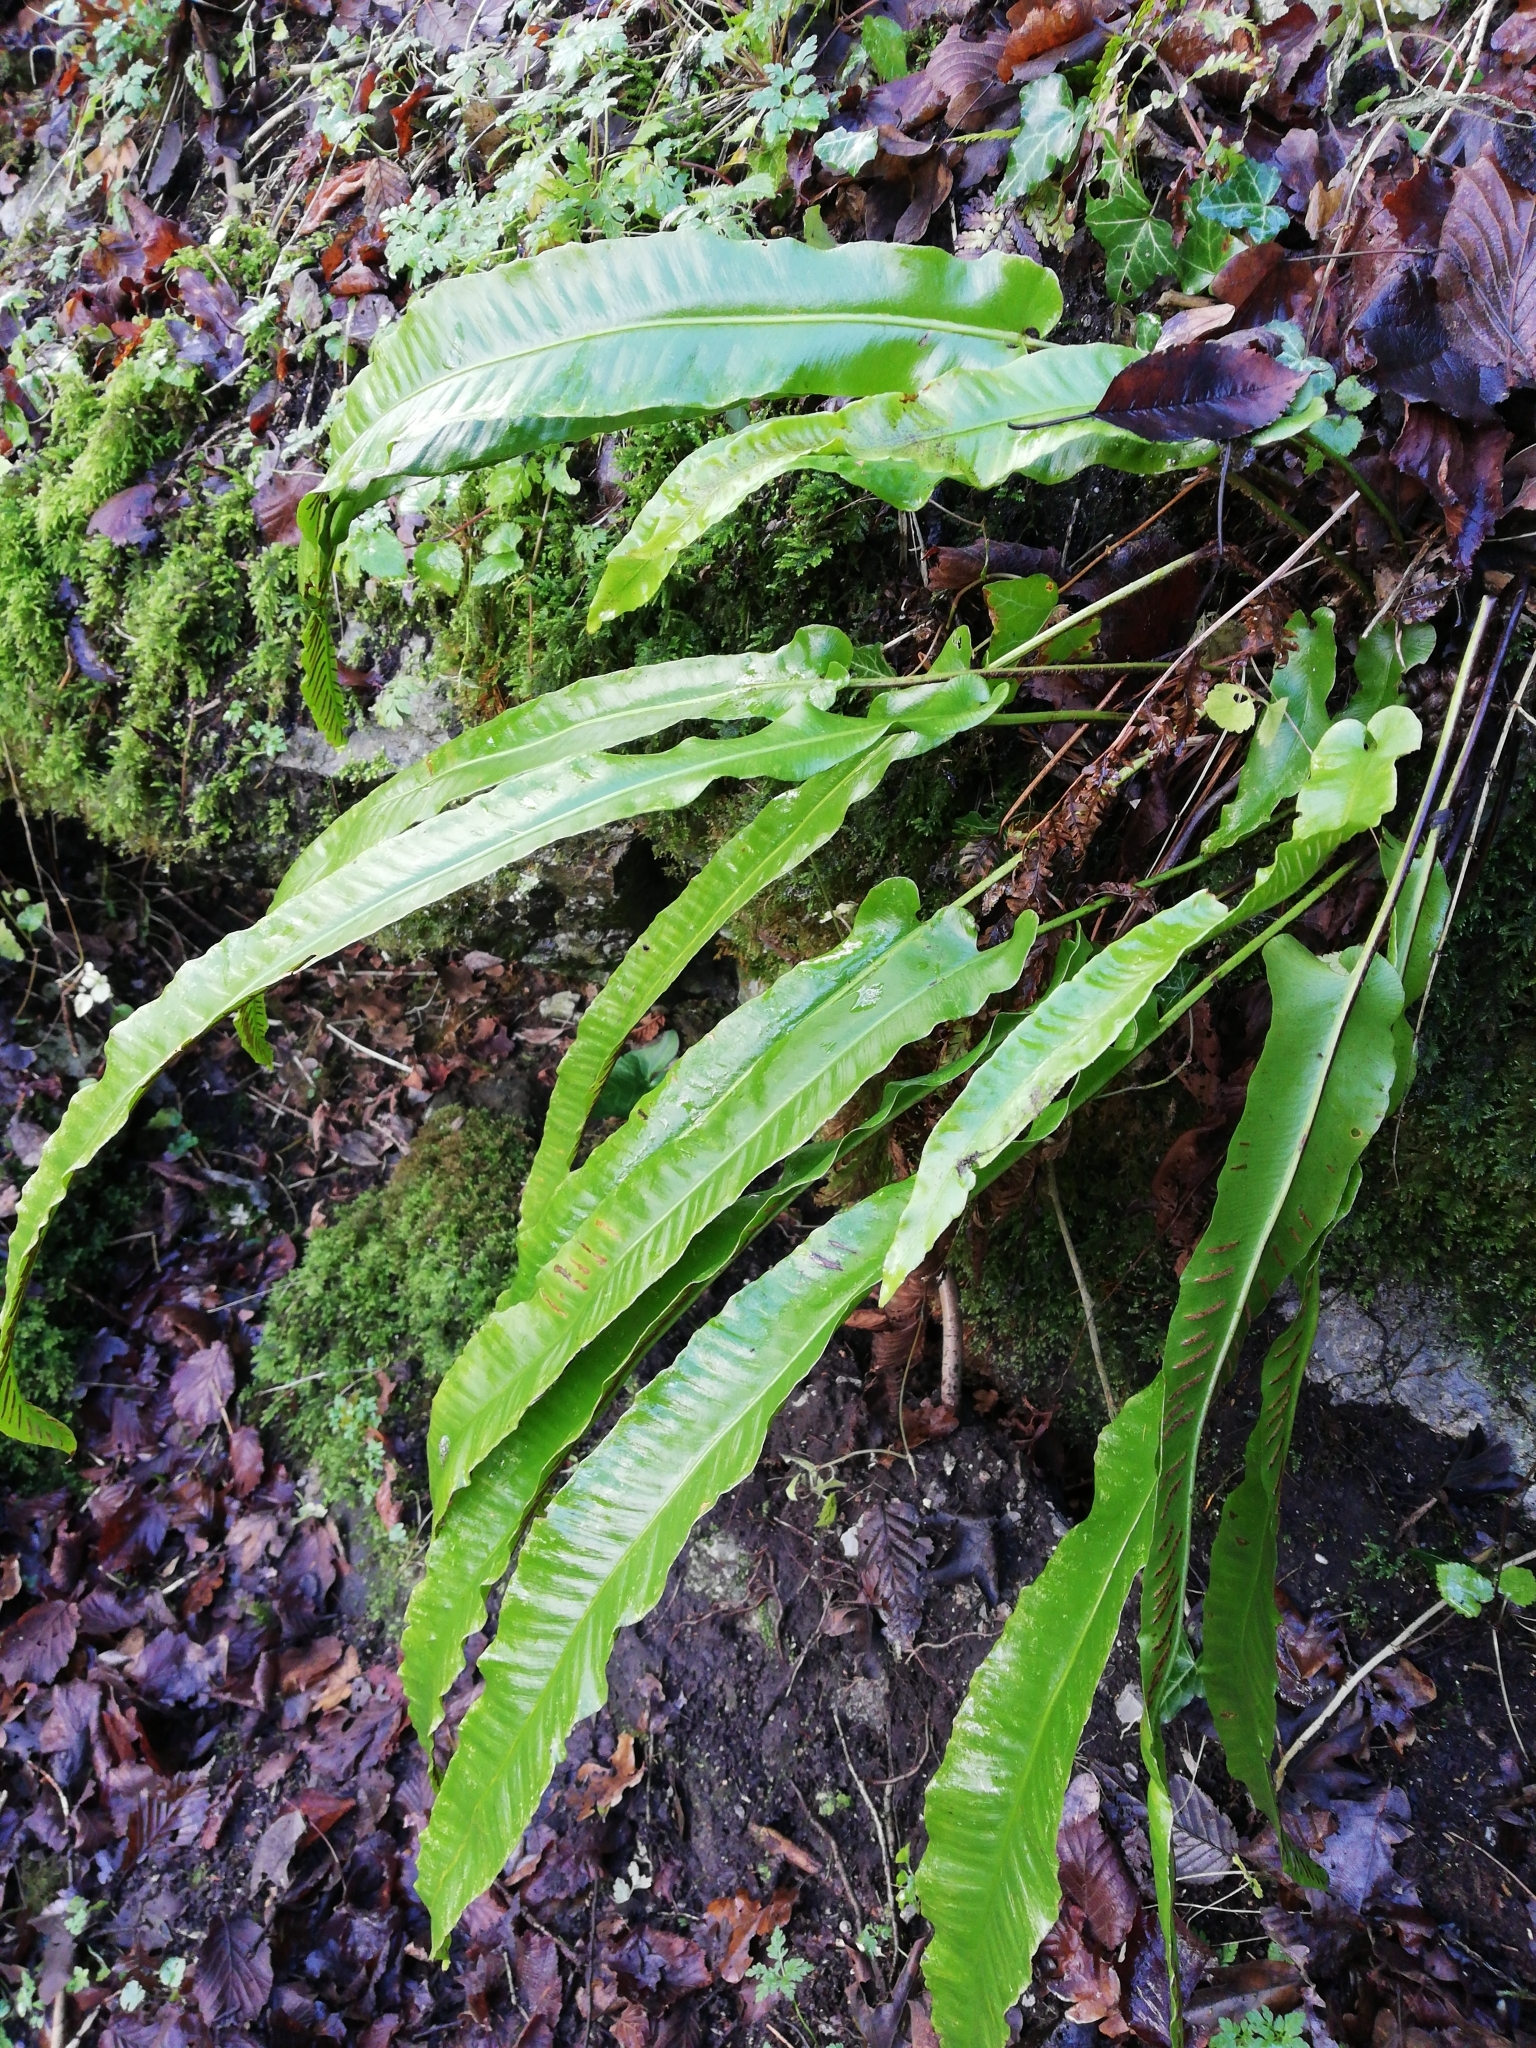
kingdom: Plantae
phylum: Tracheophyta
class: Polypodiopsida
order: Polypodiales
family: Aspleniaceae
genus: Asplenium
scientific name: Asplenium scolopendrium
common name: Hart's-tongue fern
